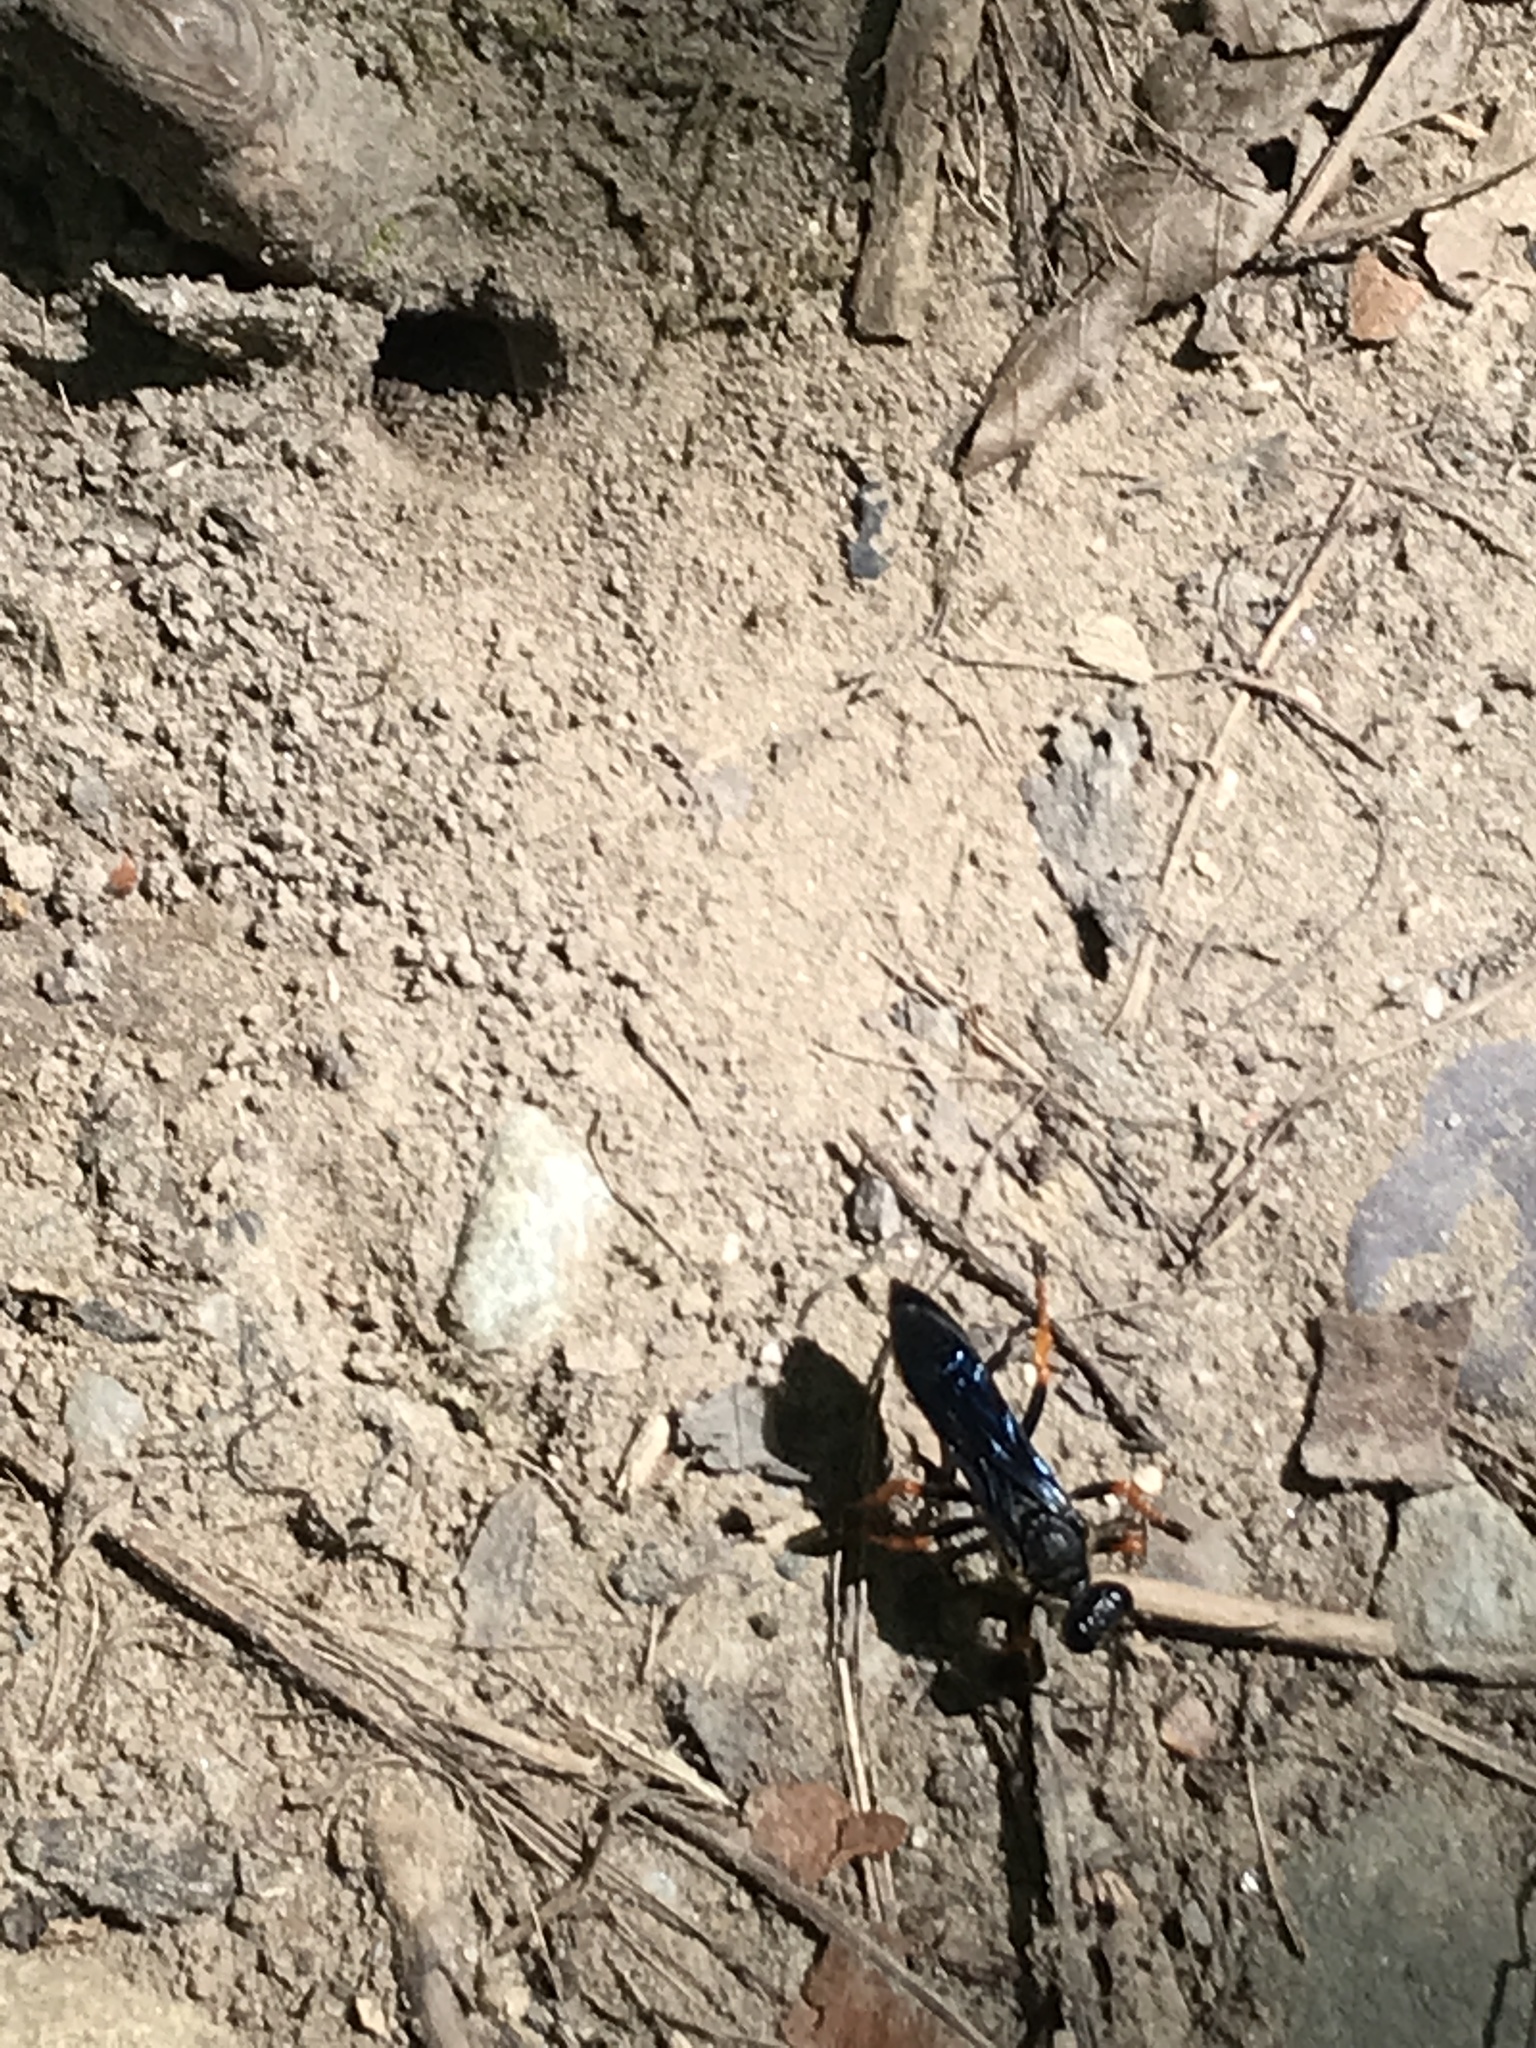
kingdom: Animalia
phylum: Arthropoda
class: Insecta
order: Hymenoptera
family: Sphecidae
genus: Sphex
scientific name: Sphex nudus
